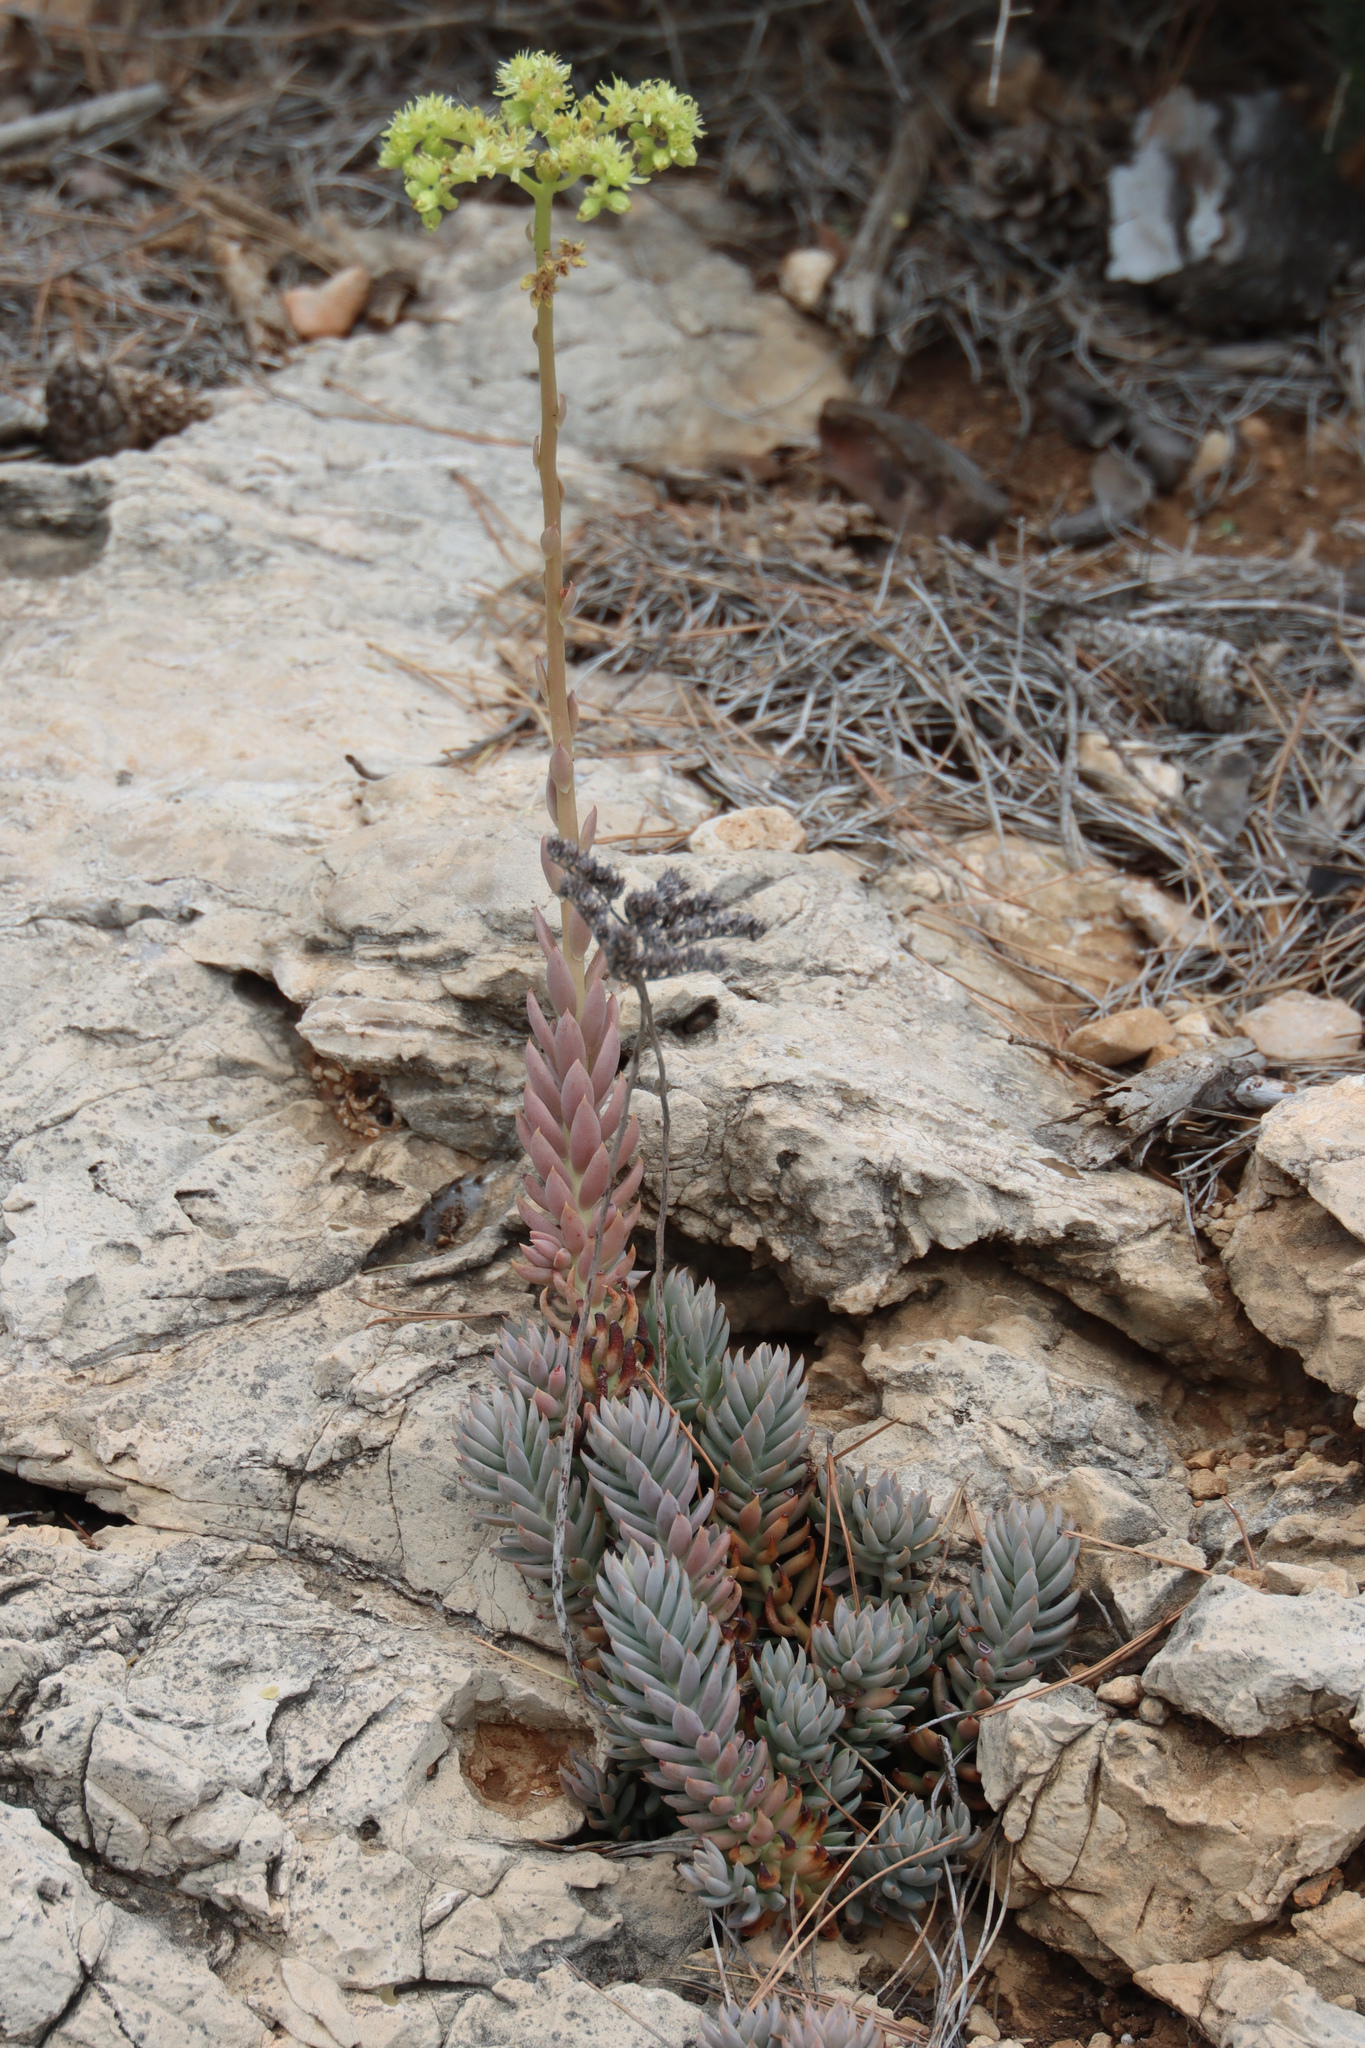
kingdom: Plantae
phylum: Tracheophyta
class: Magnoliopsida
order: Saxifragales
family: Crassulaceae
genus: Petrosedum
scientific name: Petrosedum sediforme
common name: Pale stonecrop
